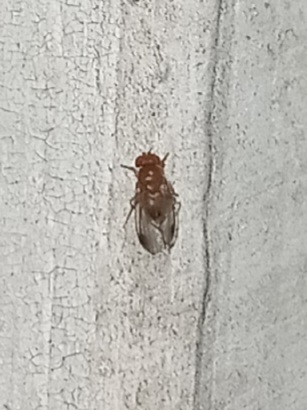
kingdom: Animalia
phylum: Arthropoda
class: Insecta
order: Diptera
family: Drosophilidae
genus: Drosophila
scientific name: Drosophila suzukii
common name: Spotted-wing drosophila
